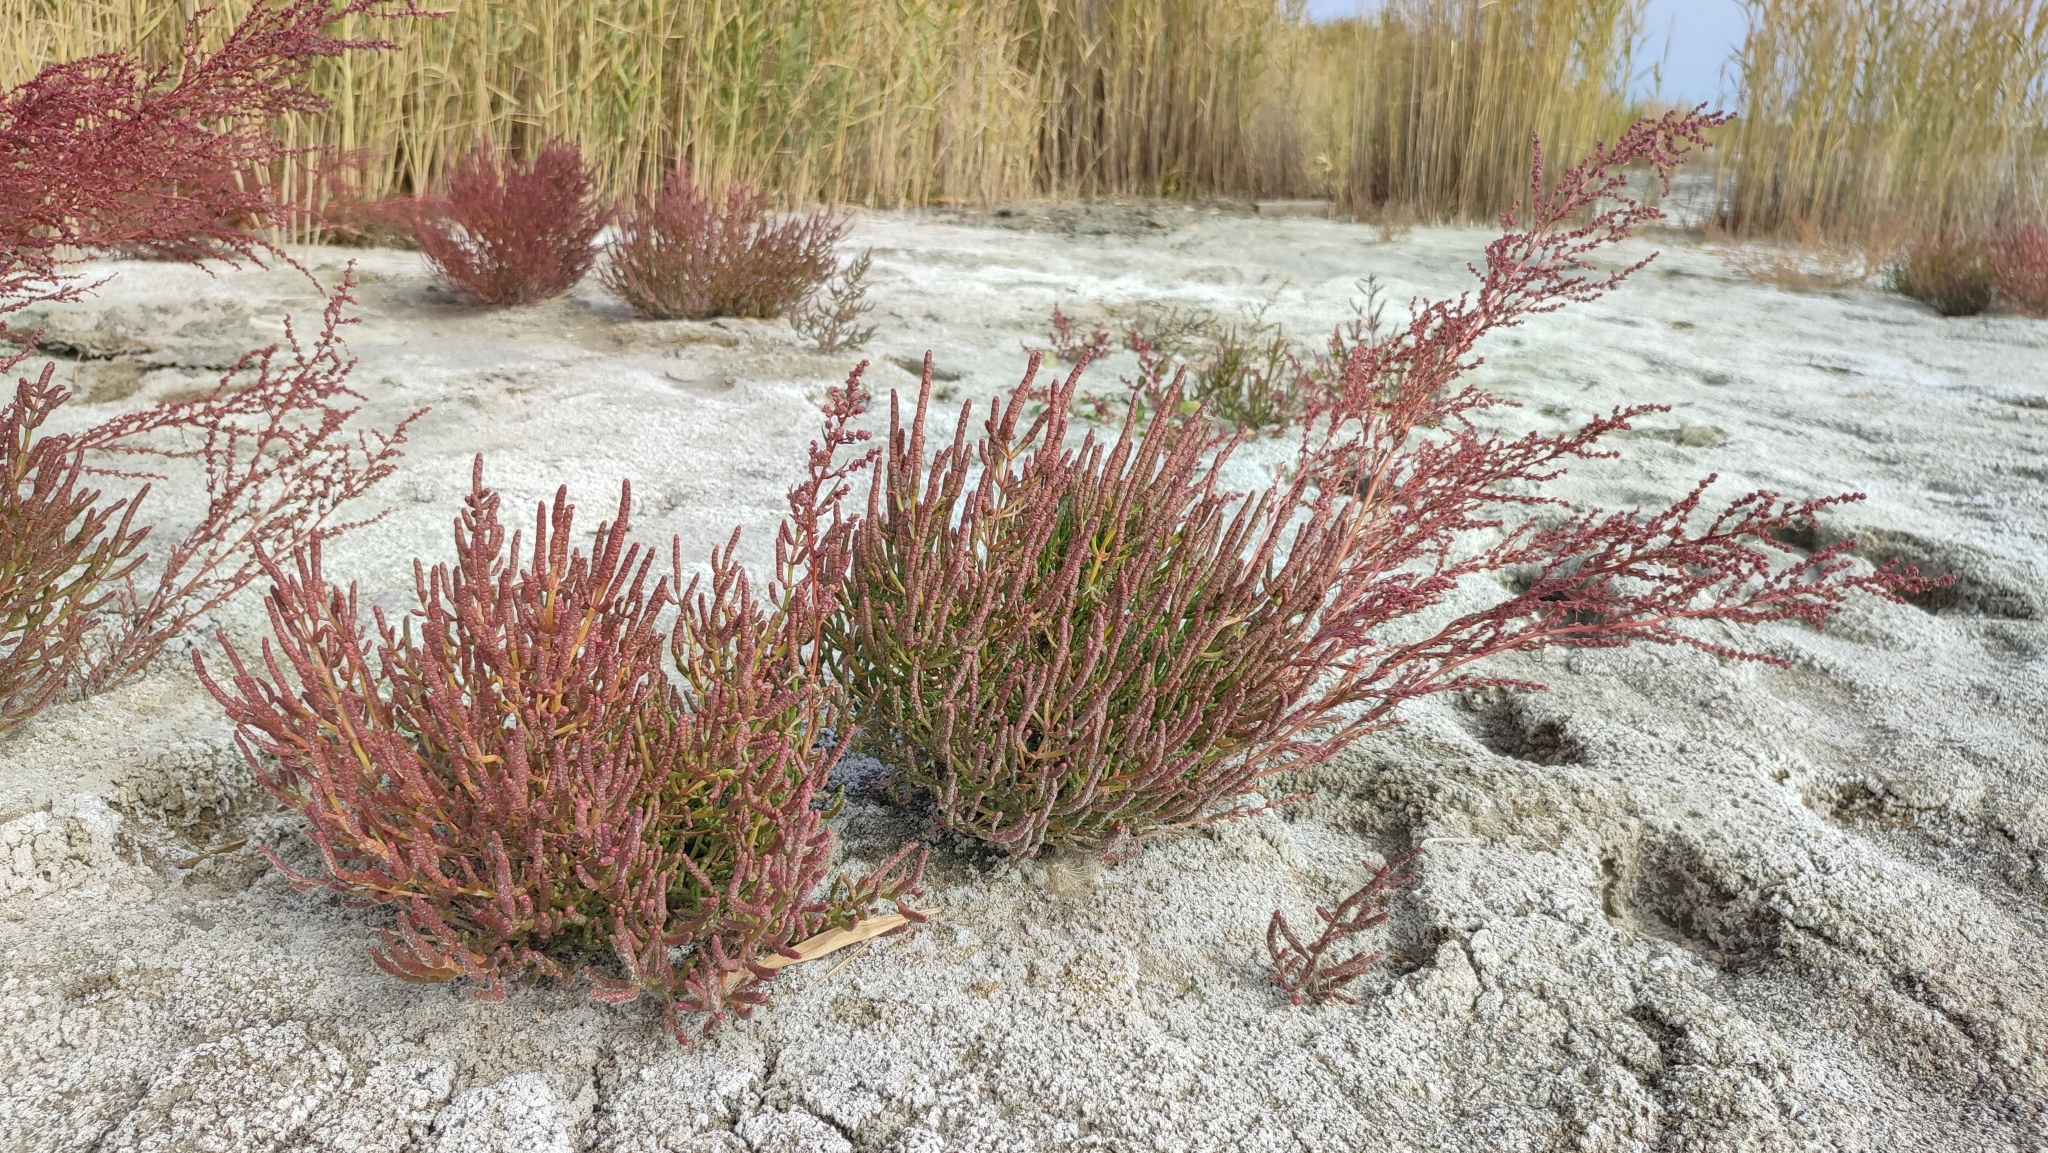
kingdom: Plantae
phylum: Tracheophyta
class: Magnoliopsida
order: Caryophyllales
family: Amaranthaceae
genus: Salicornia
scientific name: Salicornia perennans
